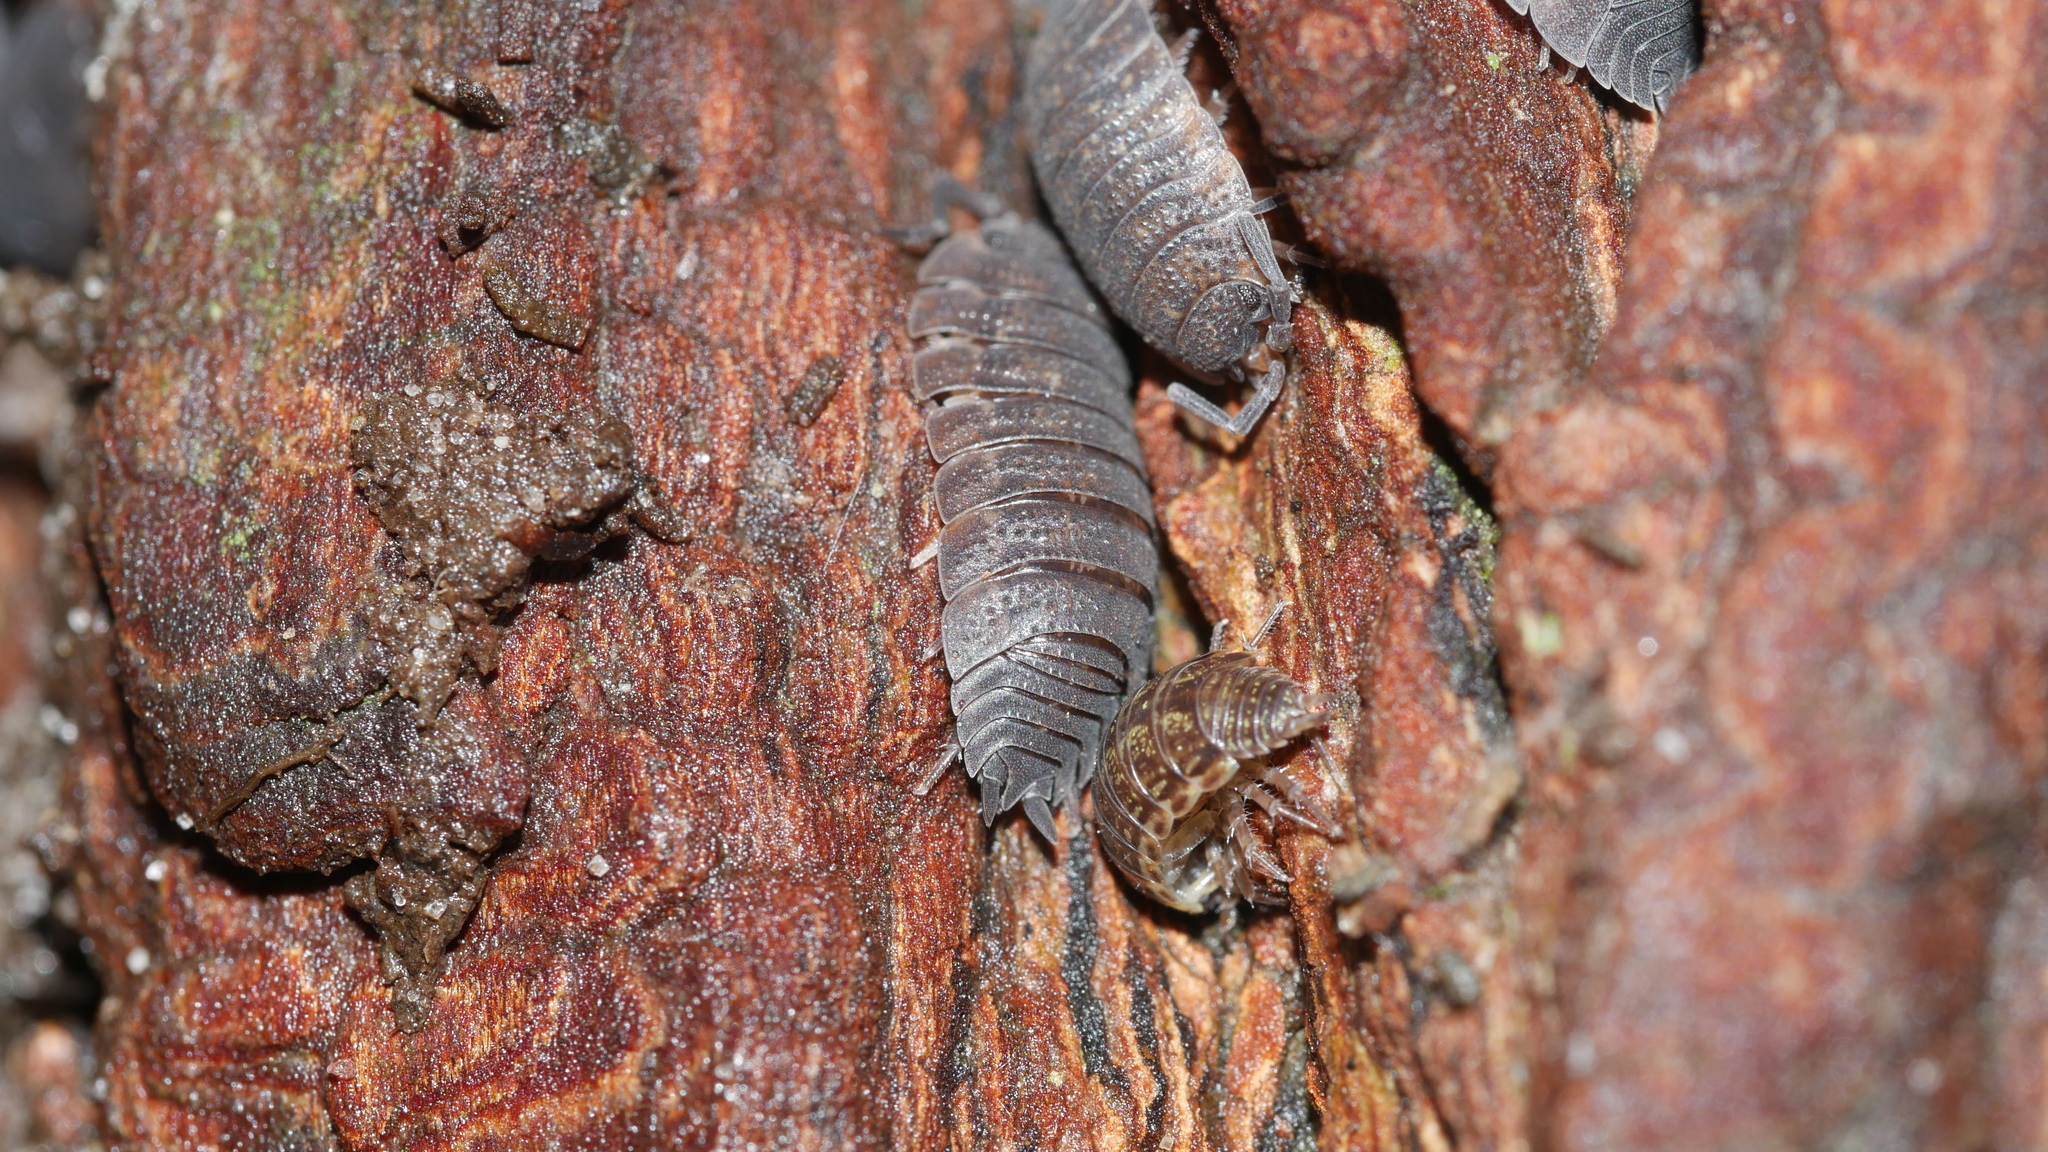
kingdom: Animalia
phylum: Arthropoda
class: Malacostraca
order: Isopoda
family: Porcellionidae
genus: Porcellio
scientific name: Porcellio scaber
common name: Common rough woodlouse
